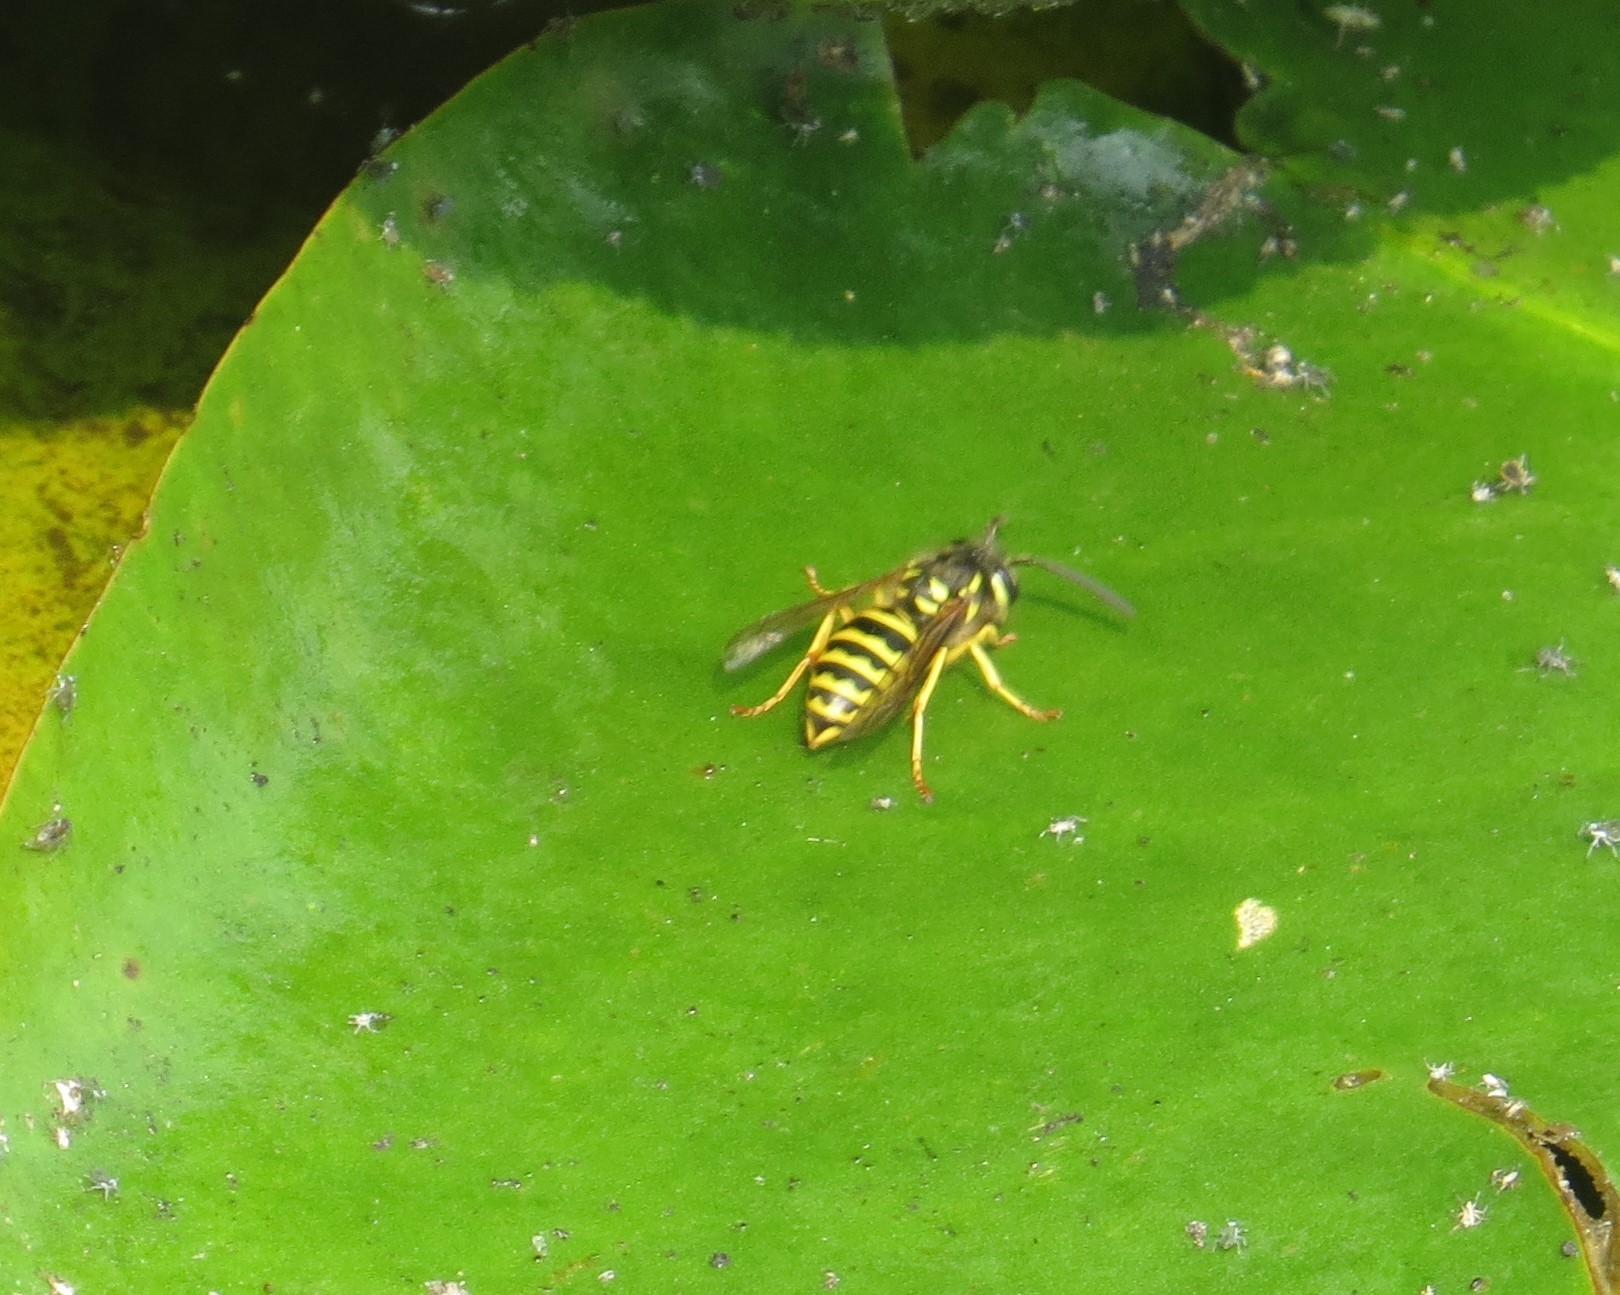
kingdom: Animalia
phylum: Arthropoda
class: Insecta
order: Hymenoptera
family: Vespidae
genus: Vespula
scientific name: Vespula maculifrons
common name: Eastern yellowjacket
